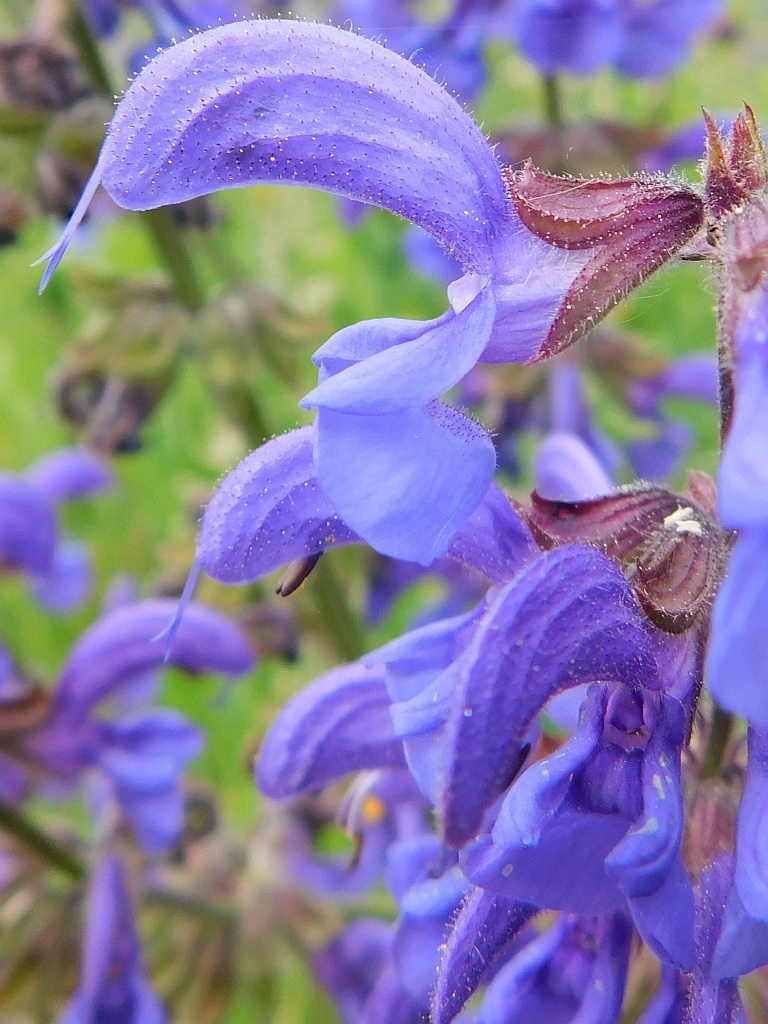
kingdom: Plantae
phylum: Tracheophyta
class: Magnoliopsida
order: Lamiales
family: Lamiaceae
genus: Salvia
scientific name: Salvia pratensis
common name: Meadow sage
